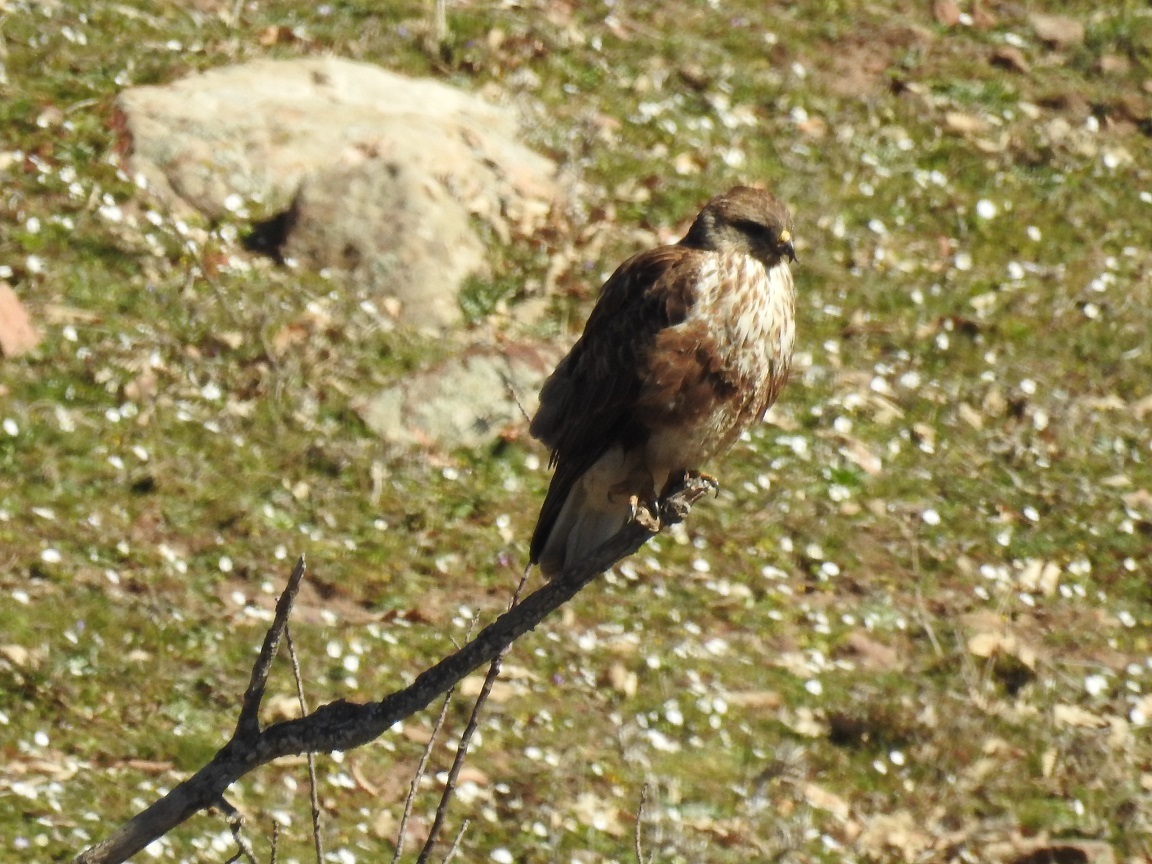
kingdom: Animalia
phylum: Chordata
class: Aves
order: Accipitriformes
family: Accipitridae
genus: Buteo
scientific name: Buteo rufinus
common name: Long-legged buzzard
